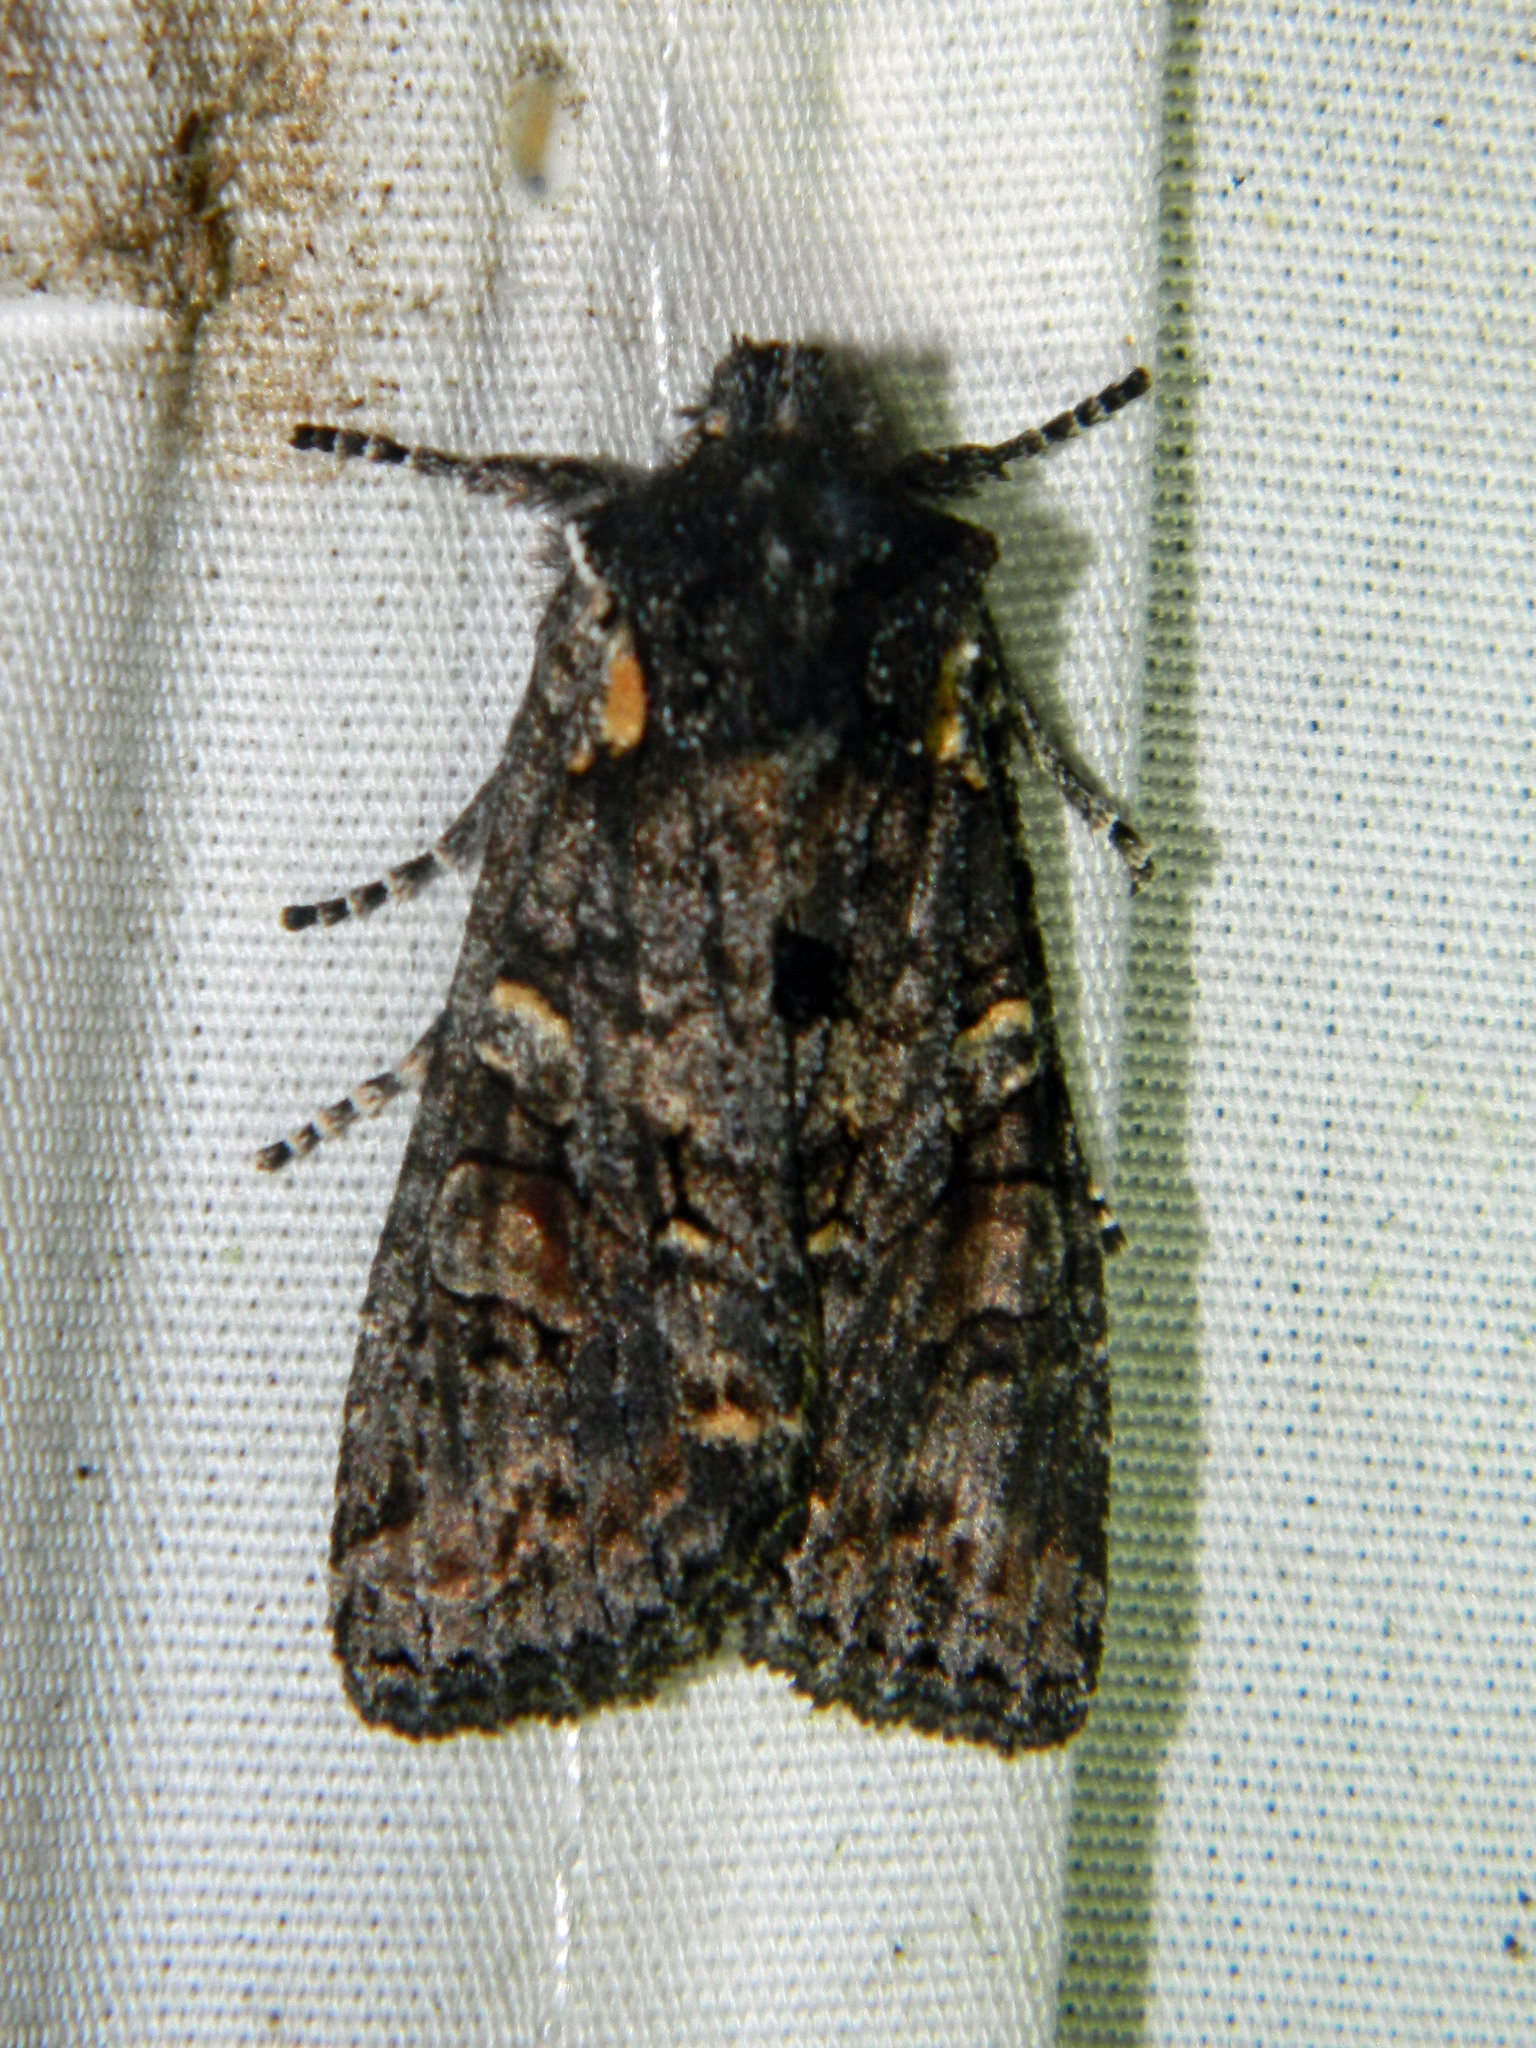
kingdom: Animalia
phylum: Arthropoda
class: Insecta
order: Lepidoptera
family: Noctuidae
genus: Lithophane
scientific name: Lithophane pexata
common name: Plush-naped pinion moth
